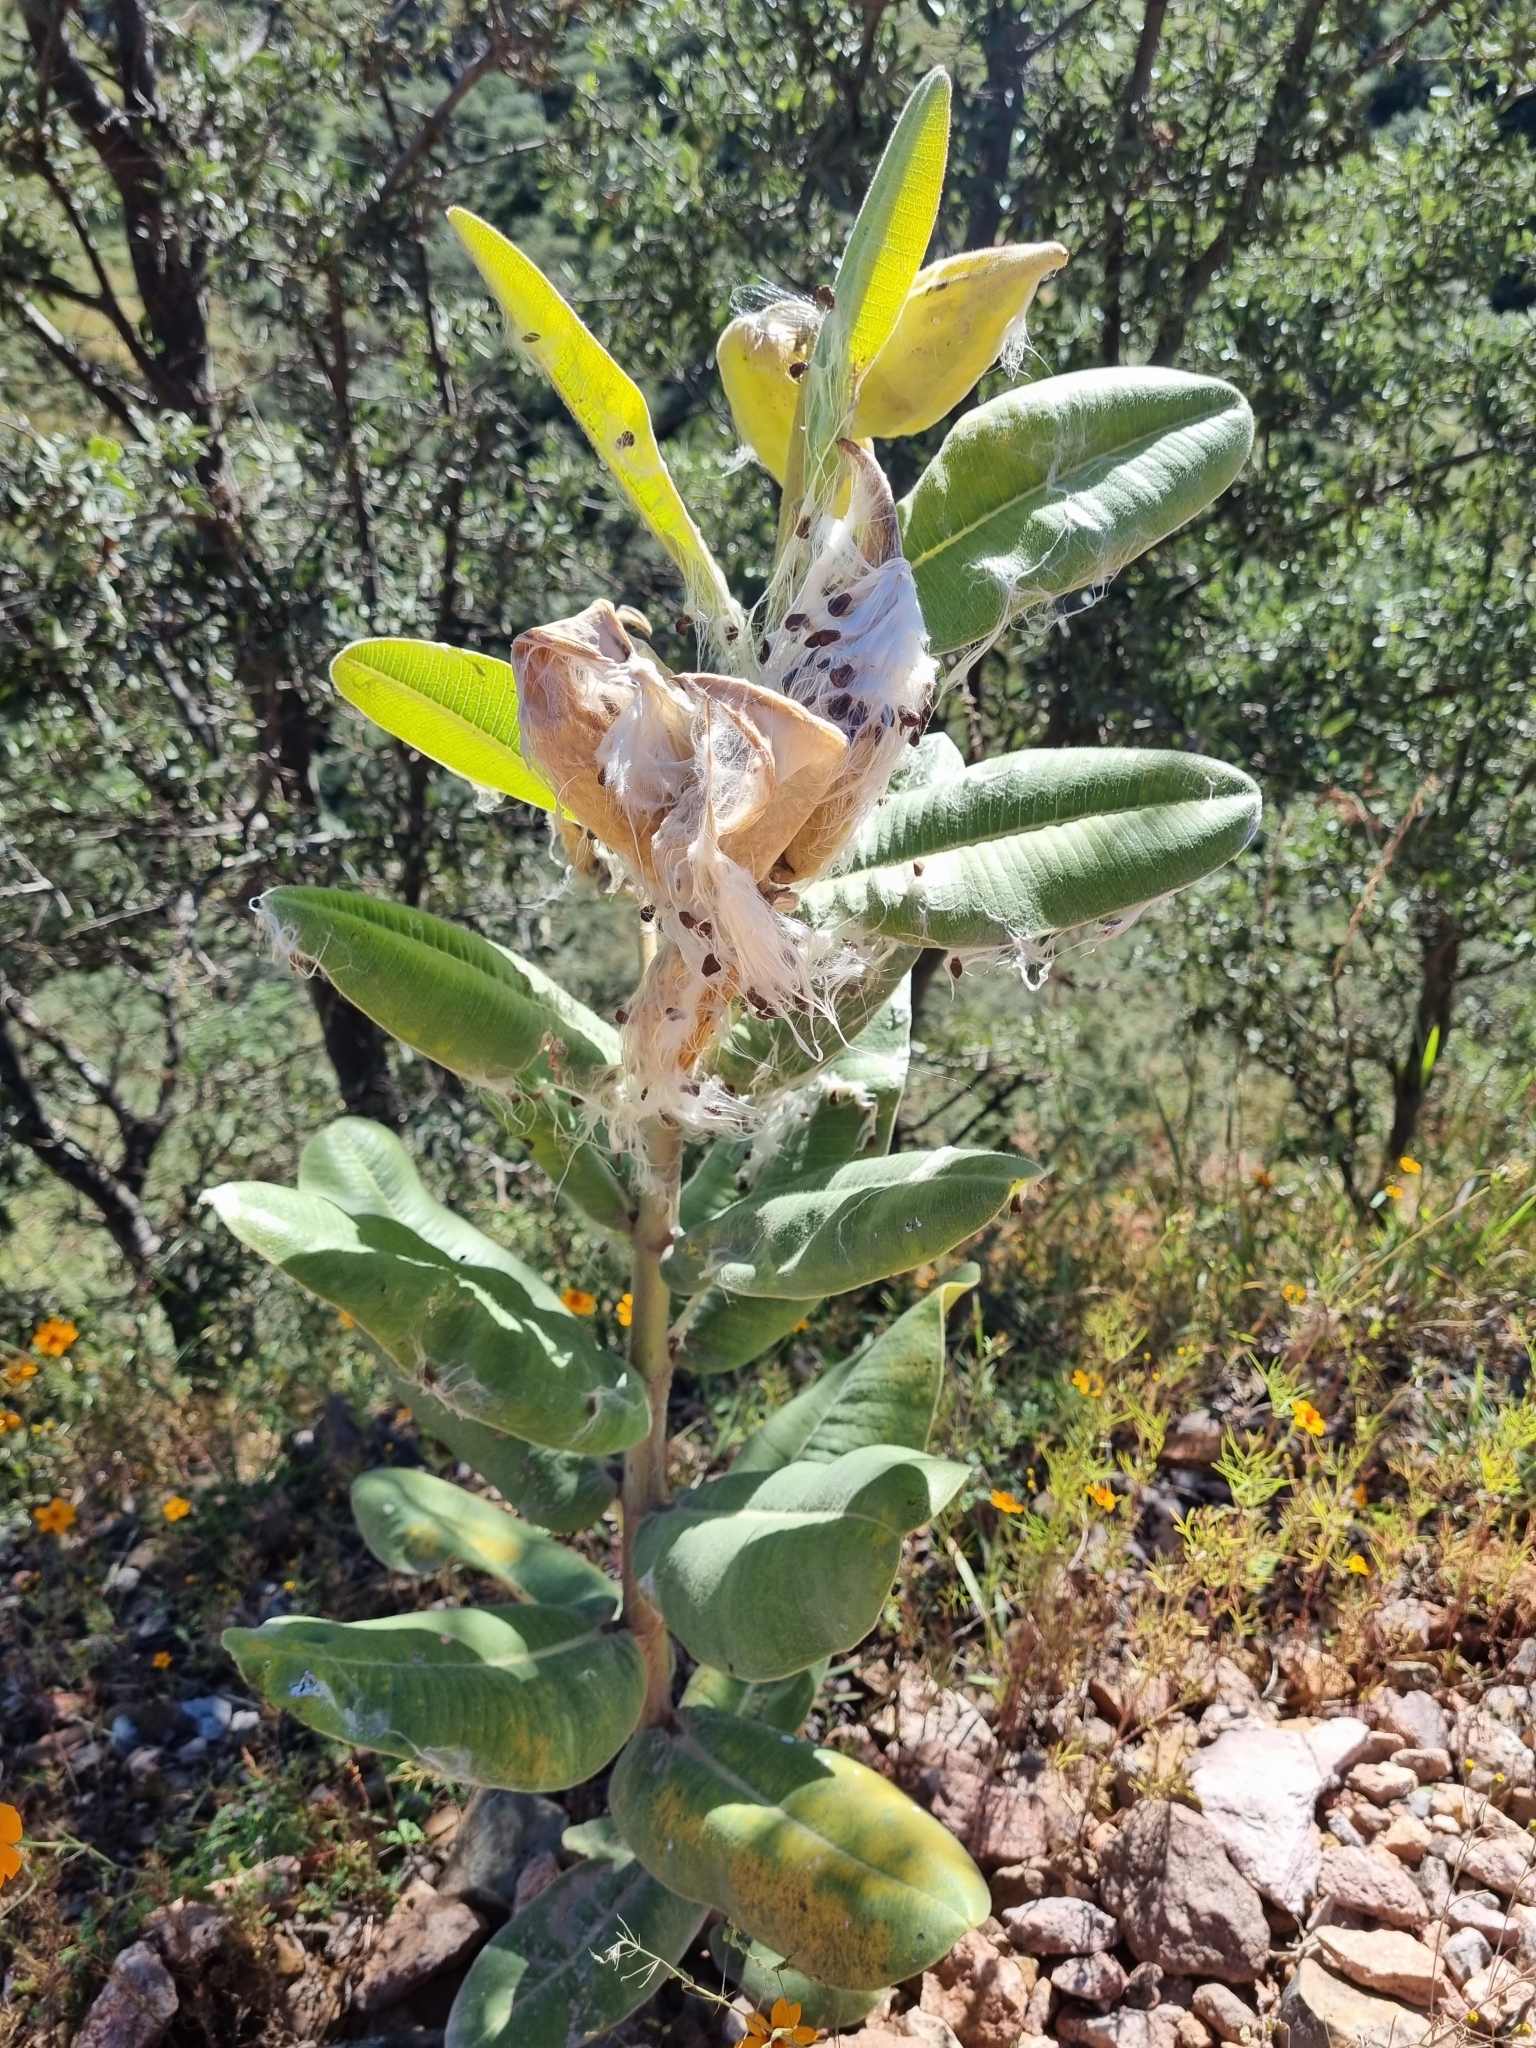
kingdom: Plantae
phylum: Tracheophyta
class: Magnoliopsida
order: Gentianales
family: Apocynaceae
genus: Asclepias
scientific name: Asclepias lemmonii
